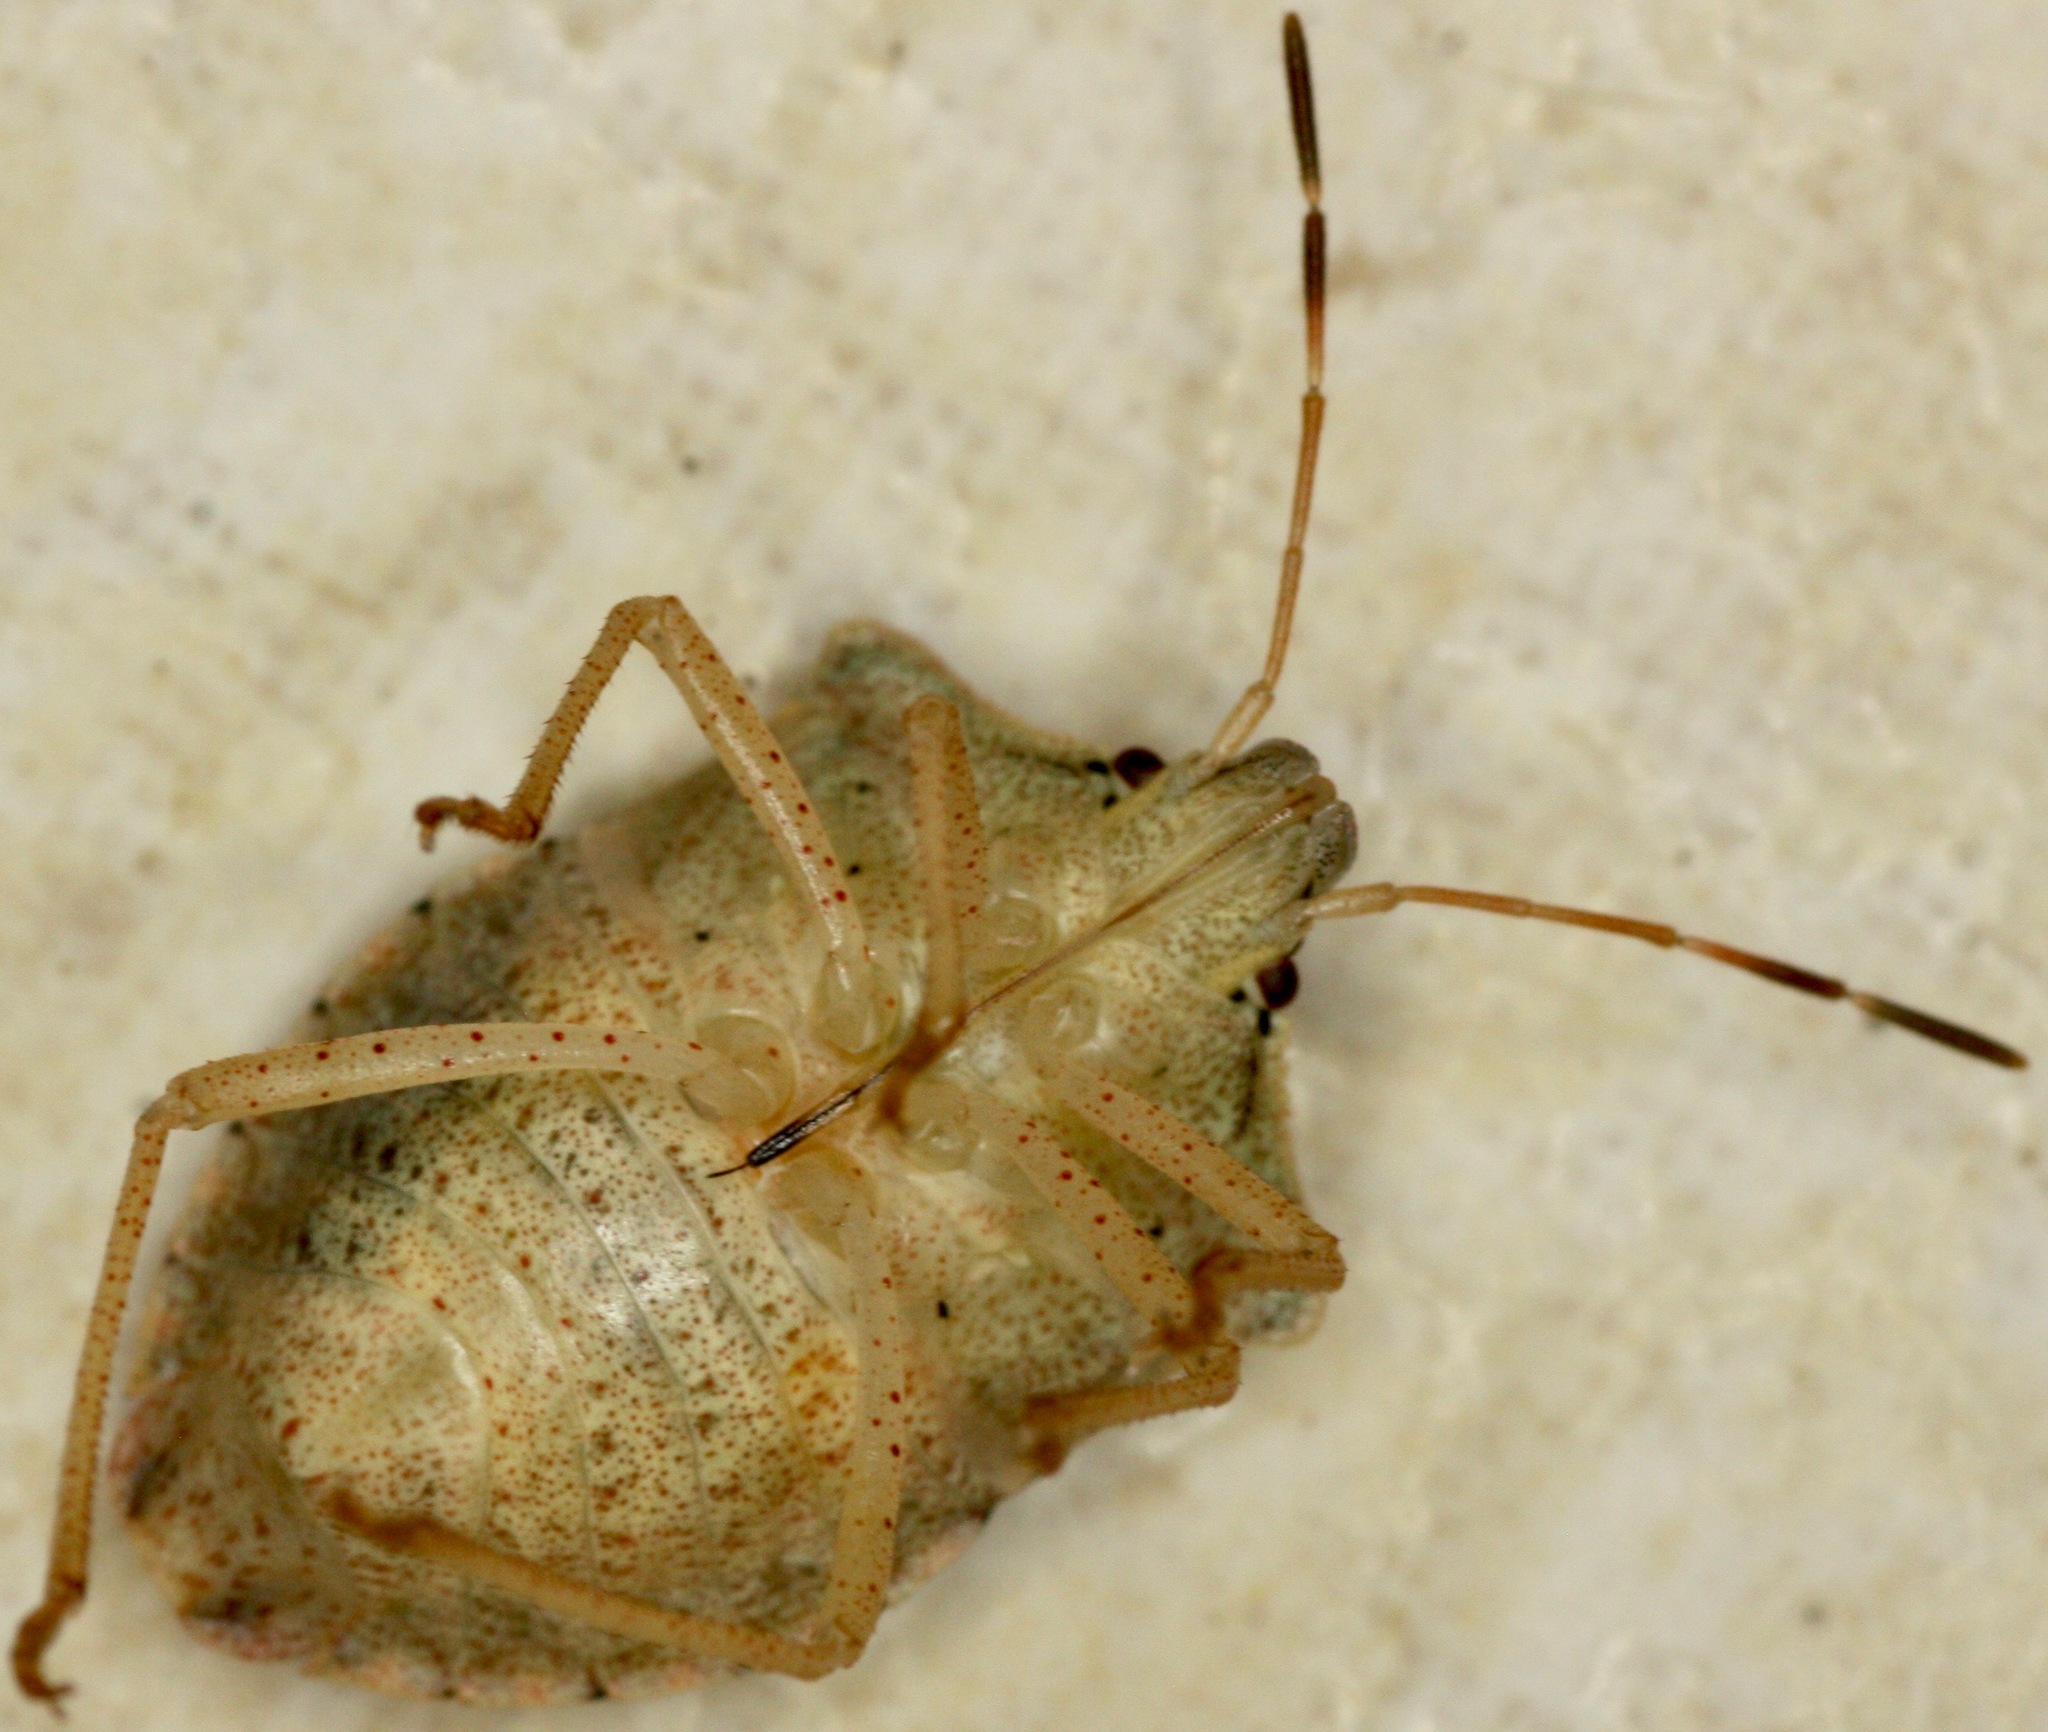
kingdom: Animalia
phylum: Arthropoda
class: Insecta
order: Hemiptera
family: Pentatomidae
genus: Euschistus
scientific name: Euschistus inflatus
